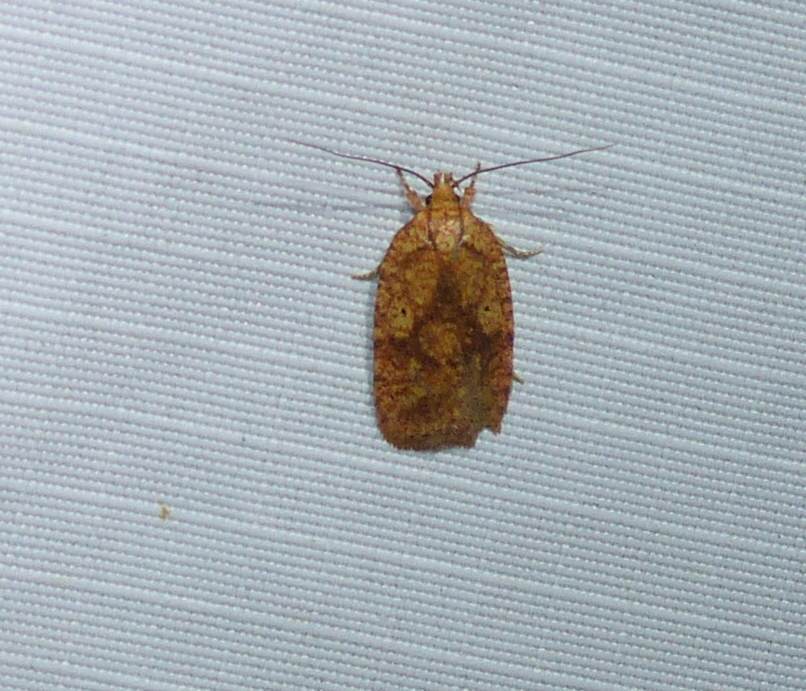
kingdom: Animalia
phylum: Arthropoda
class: Insecta
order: Lepidoptera
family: Depressariidae
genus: Agonopterix
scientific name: Agonopterix robiniella
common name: Four-dotted agonopterix moth
